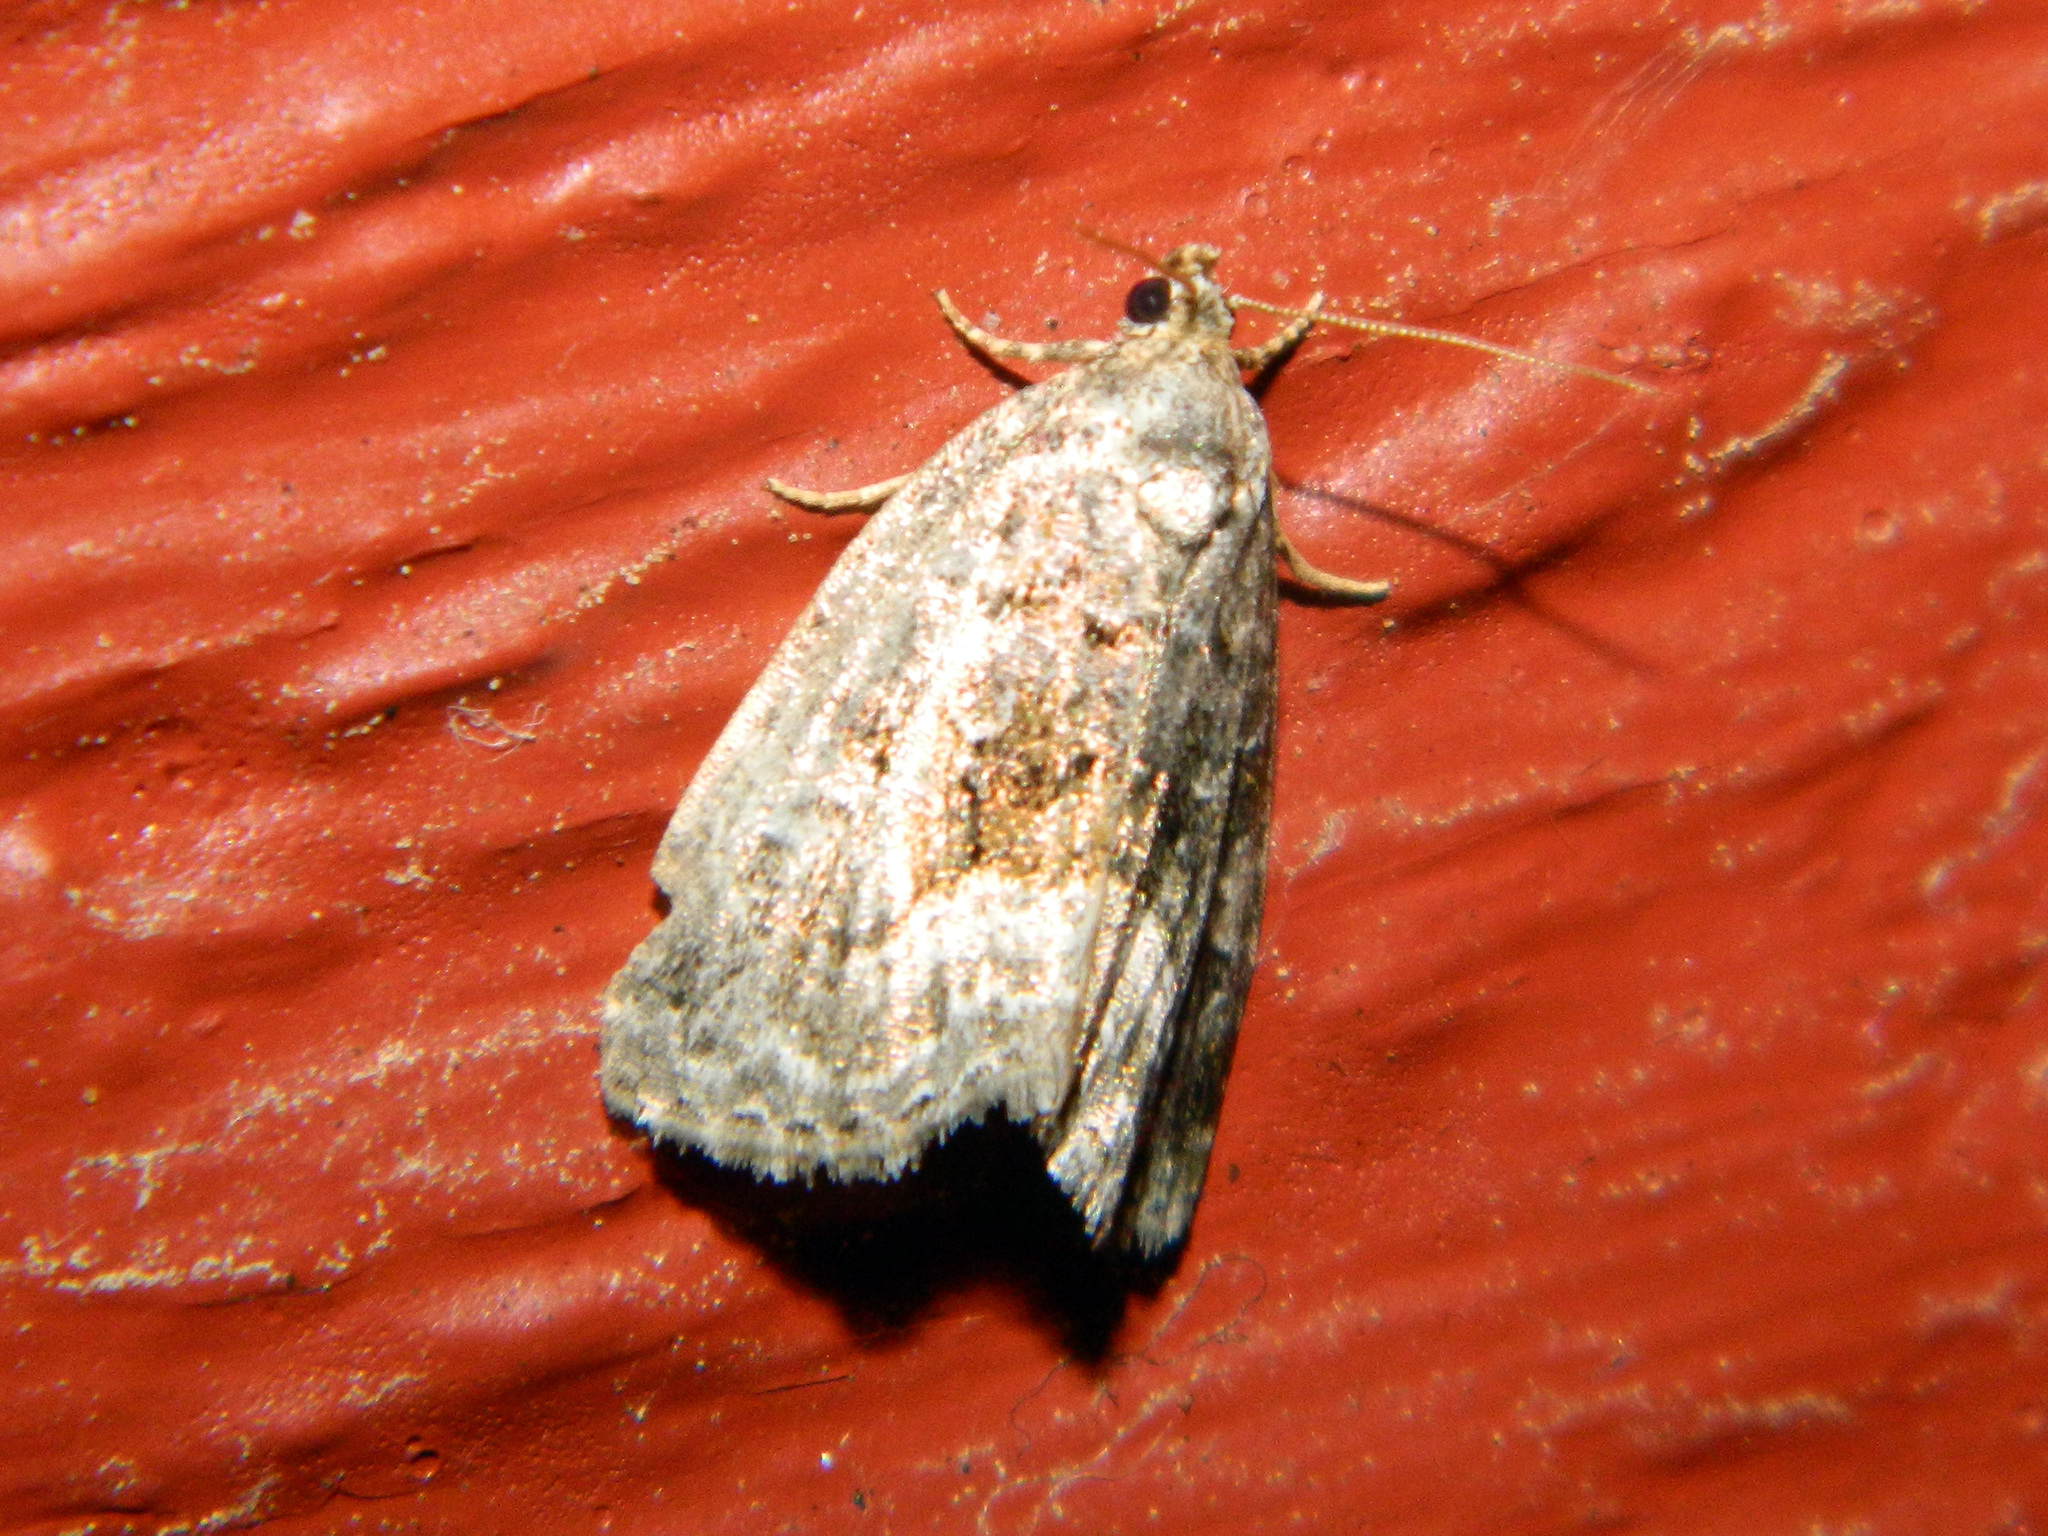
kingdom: Animalia
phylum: Arthropoda
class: Insecta
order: Lepidoptera
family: Noctuidae
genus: Protodeltote
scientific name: Protodeltote muscosula
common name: Large mossy glyph
